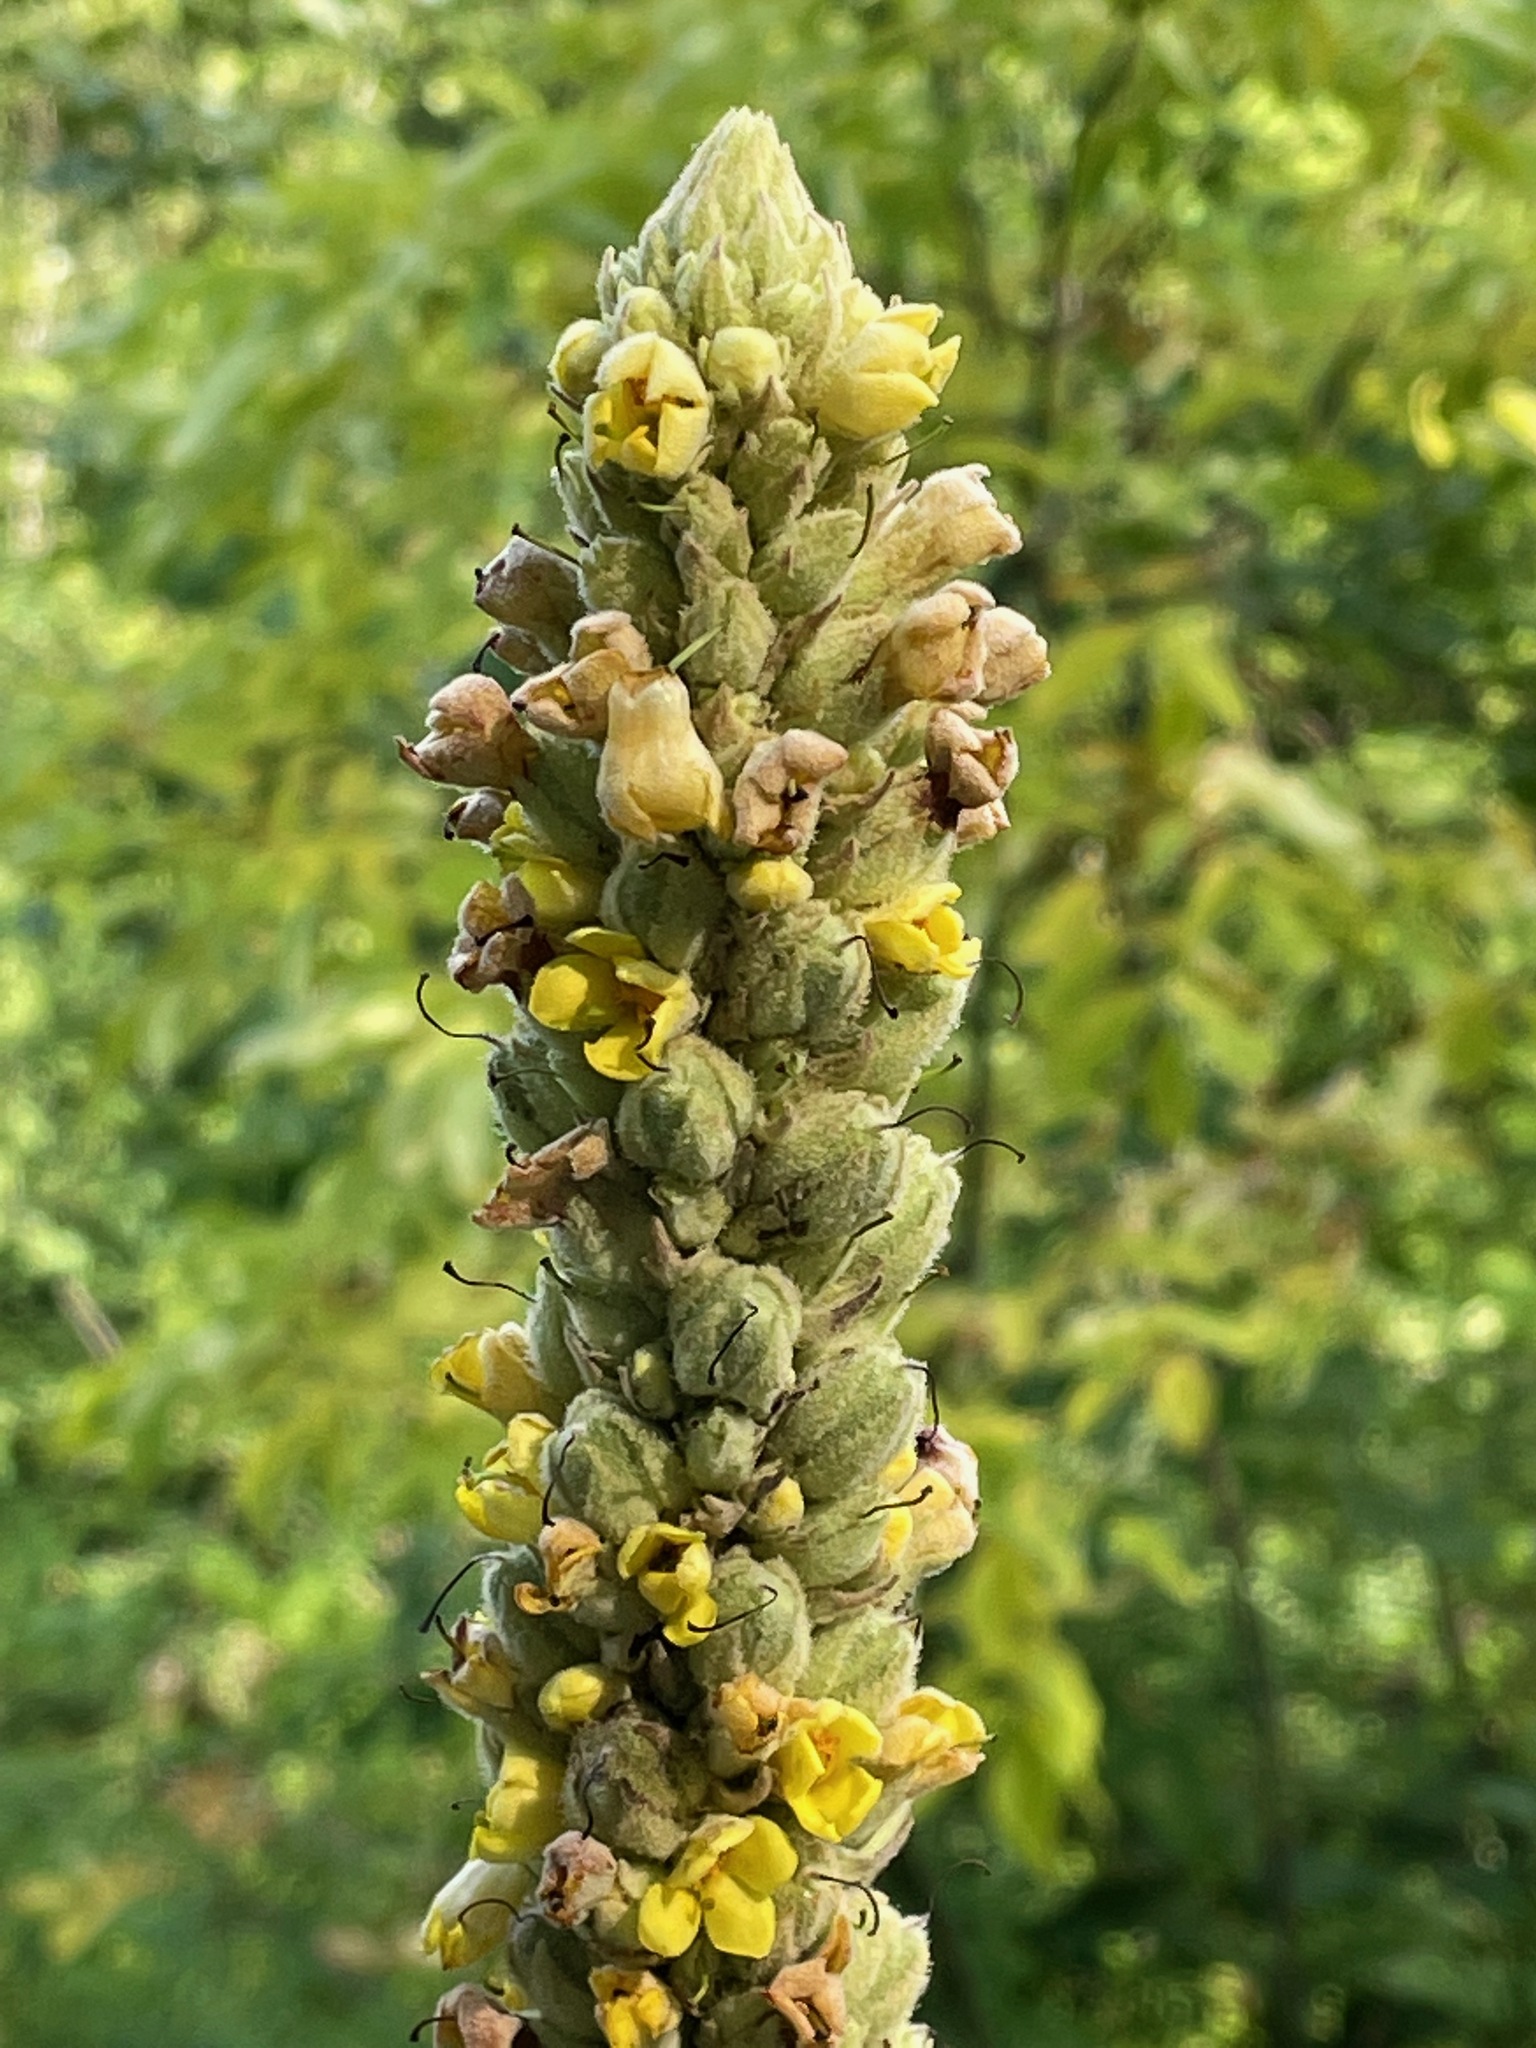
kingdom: Plantae
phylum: Tracheophyta
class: Magnoliopsida
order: Lamiales
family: Scrophulariaceae
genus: Verbascum
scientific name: Verbascum thapsus
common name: Common mullein
